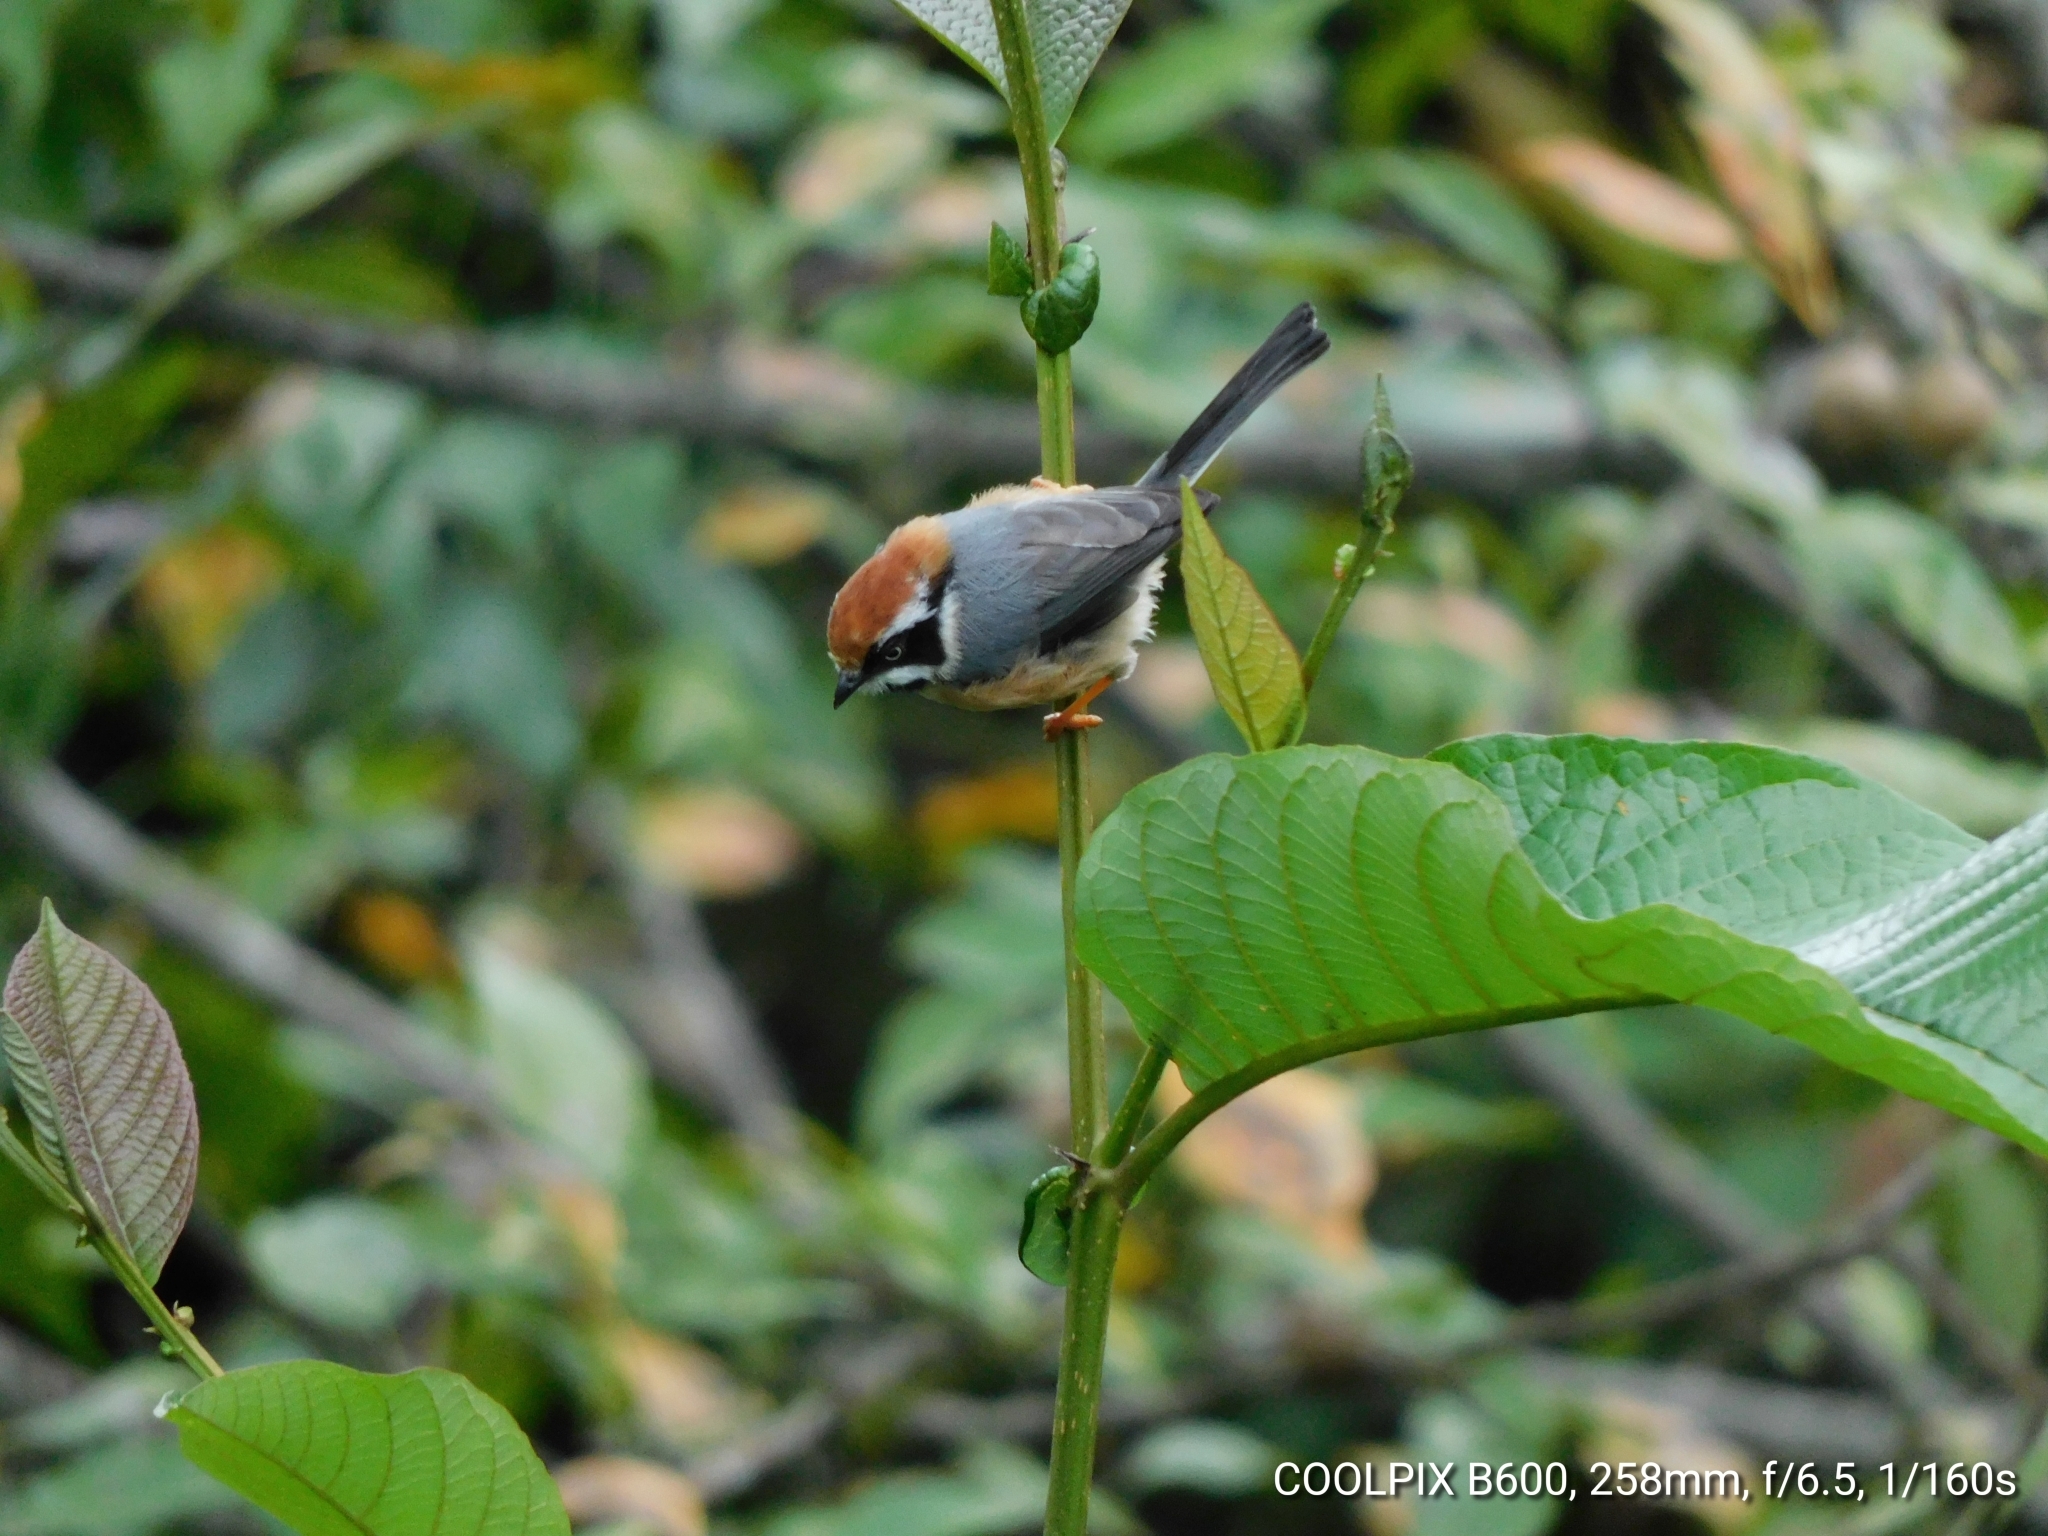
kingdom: Animalia
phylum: Chordata
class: Aves
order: Passeriformes
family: Aegithalidae
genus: Aegithalos
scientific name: Aegithalos concinnus
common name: Black-throated bushtit
